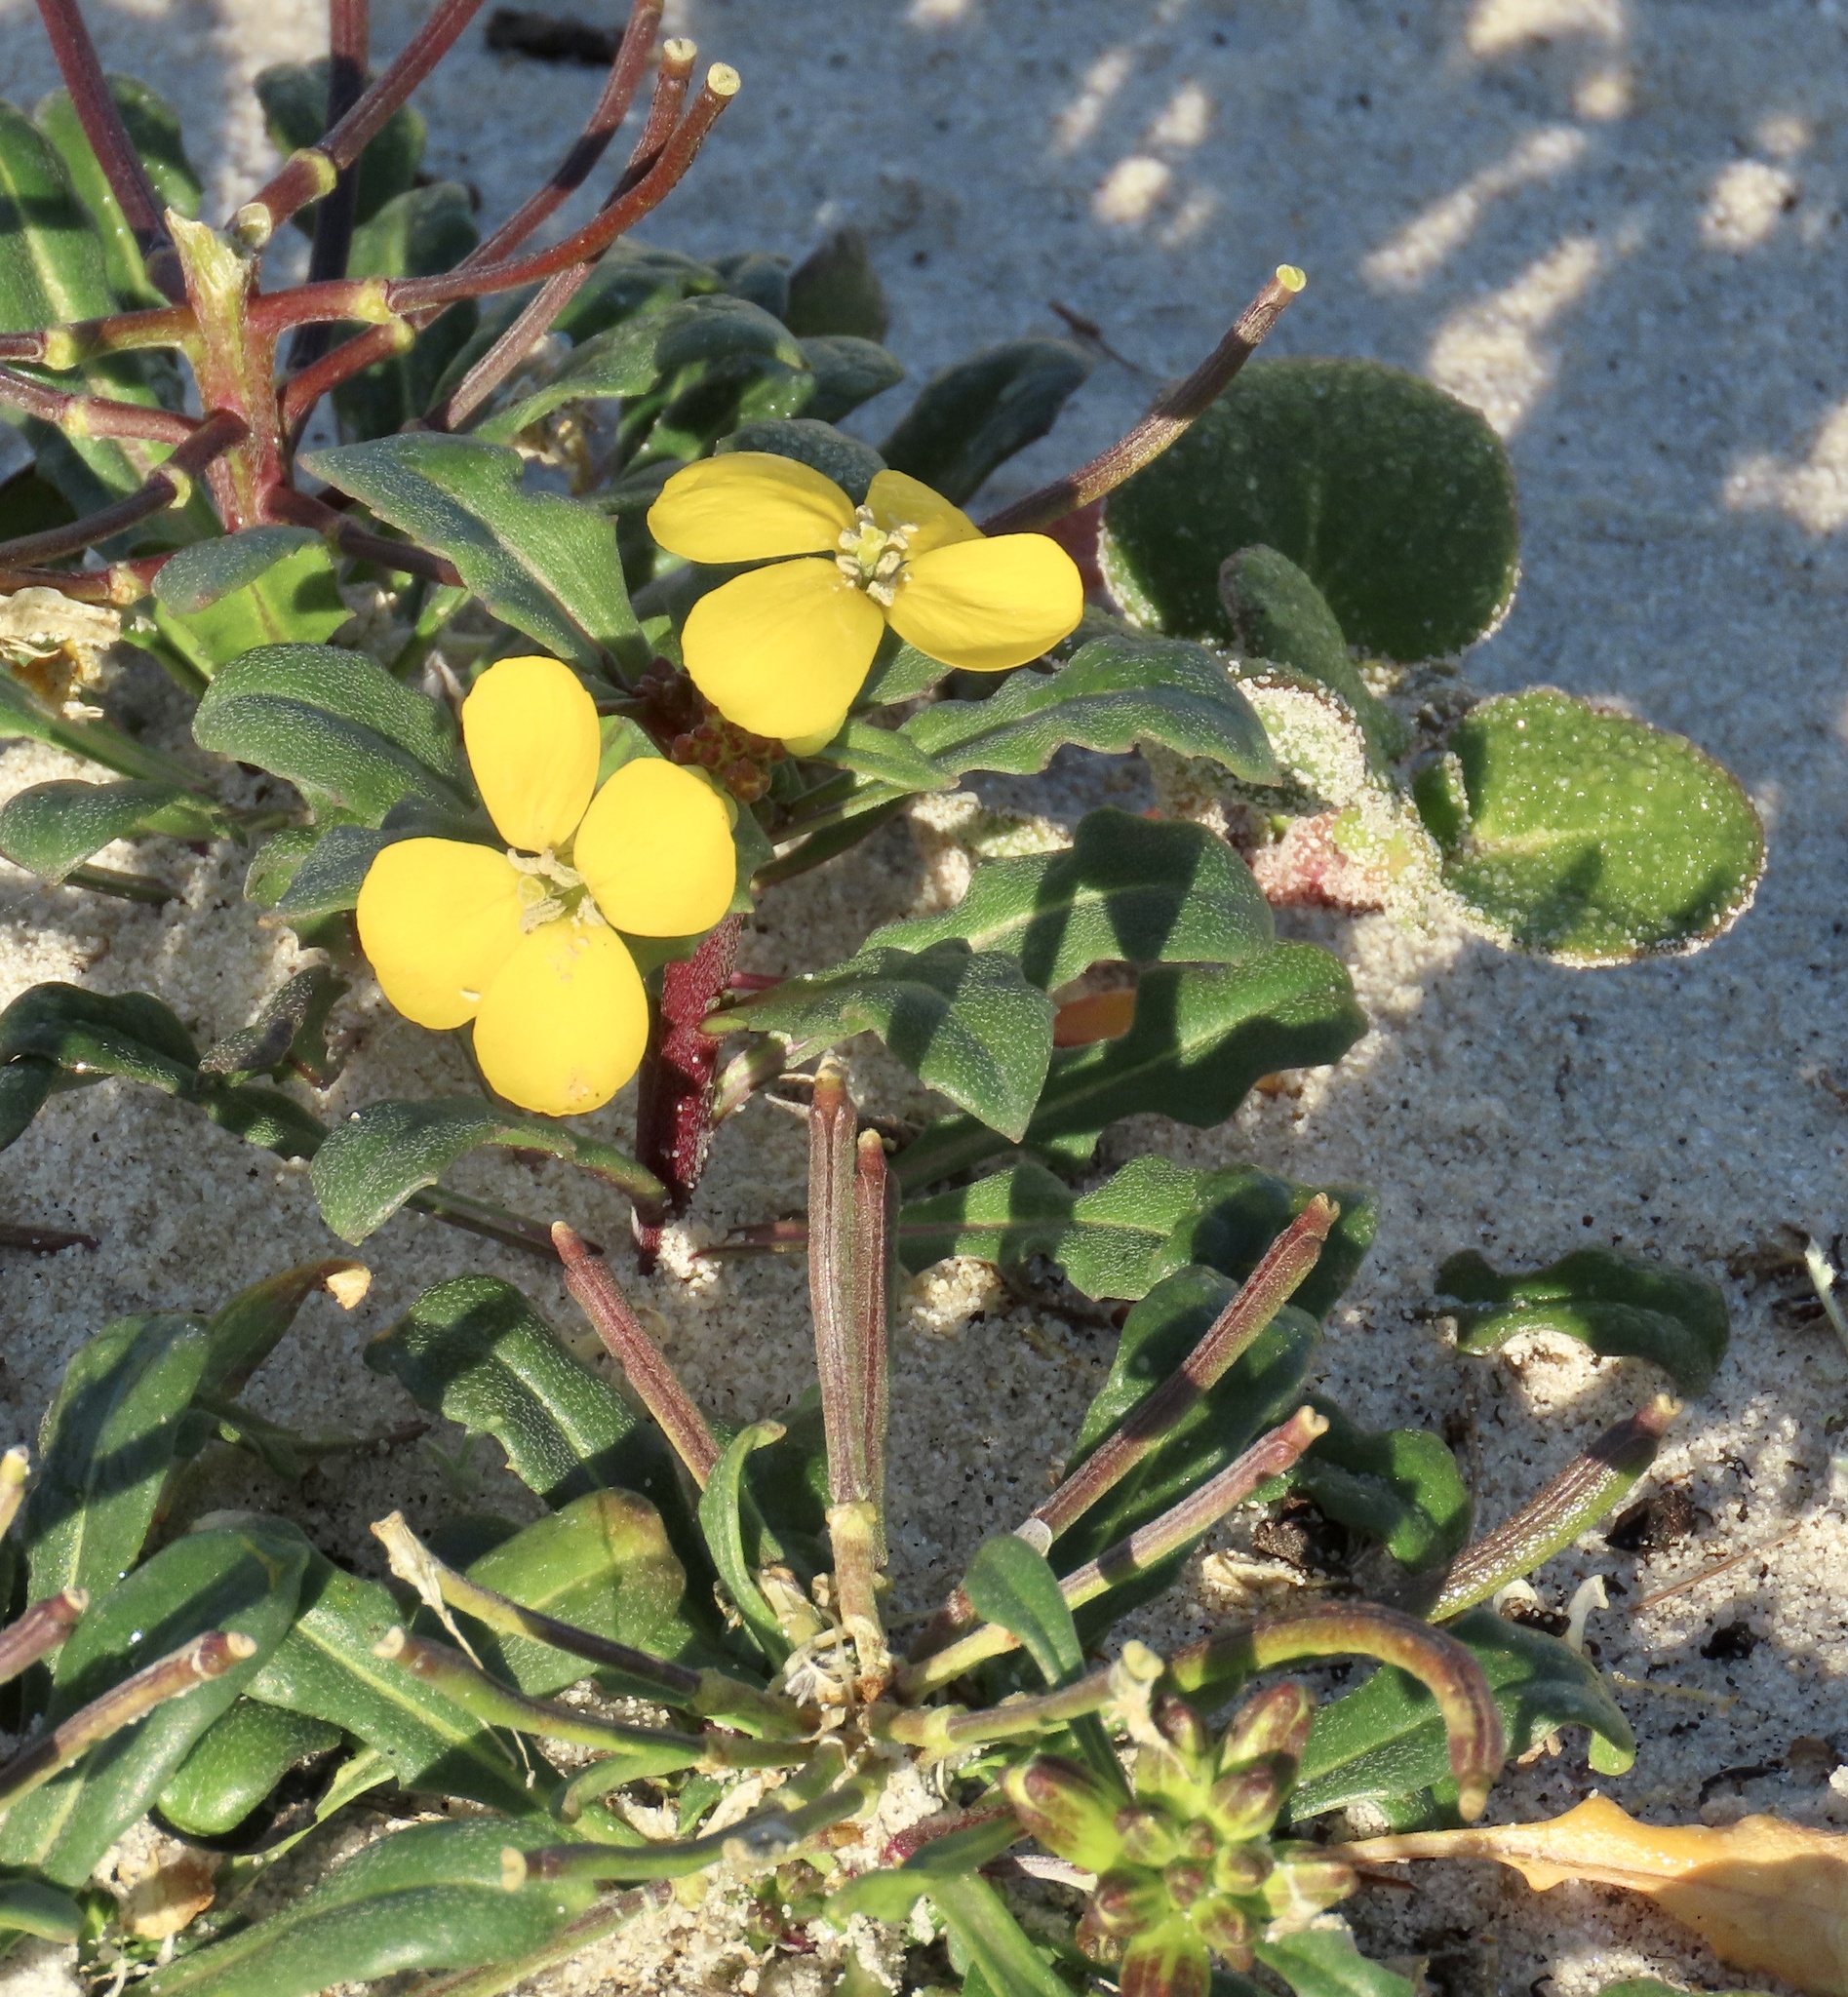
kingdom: Plantae
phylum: Tracheophyta
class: Magnoliopsida
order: Brassicales
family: Brassicaceae
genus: Erysimum
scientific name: Erysimum menziesii
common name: Menzies's wallflower
